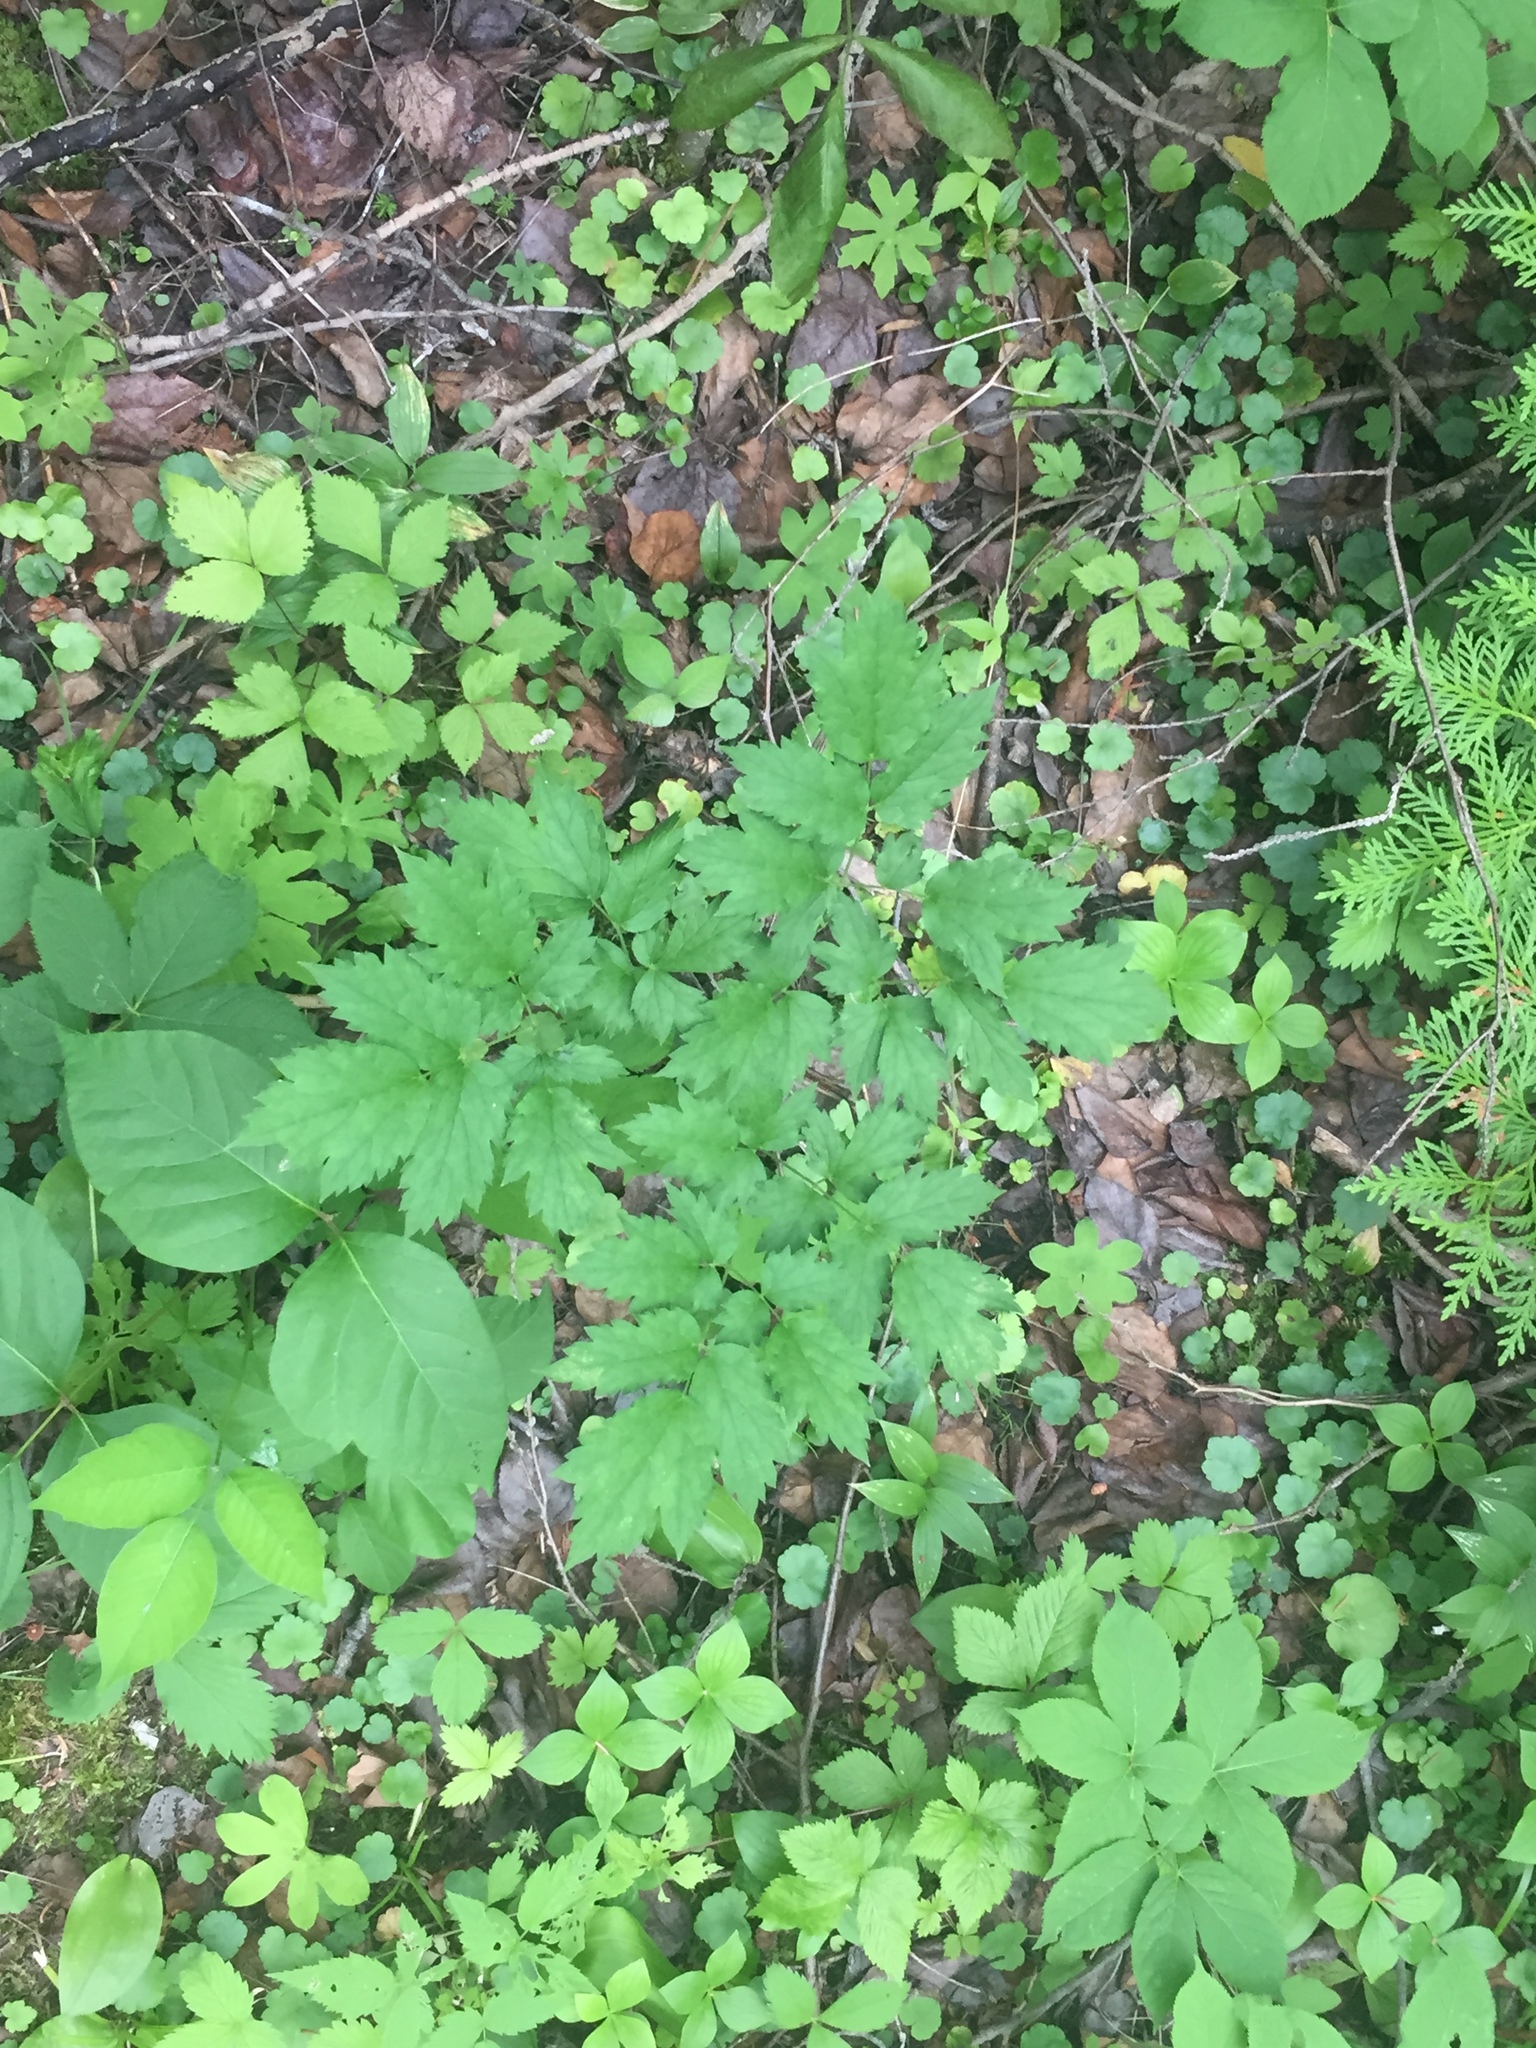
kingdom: Plantae
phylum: Tracheophyta
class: Magnoliopsida
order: Ranunculales
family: Ranunculaceae
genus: Actaea
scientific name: Actaea rubra
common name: Red baneberry
